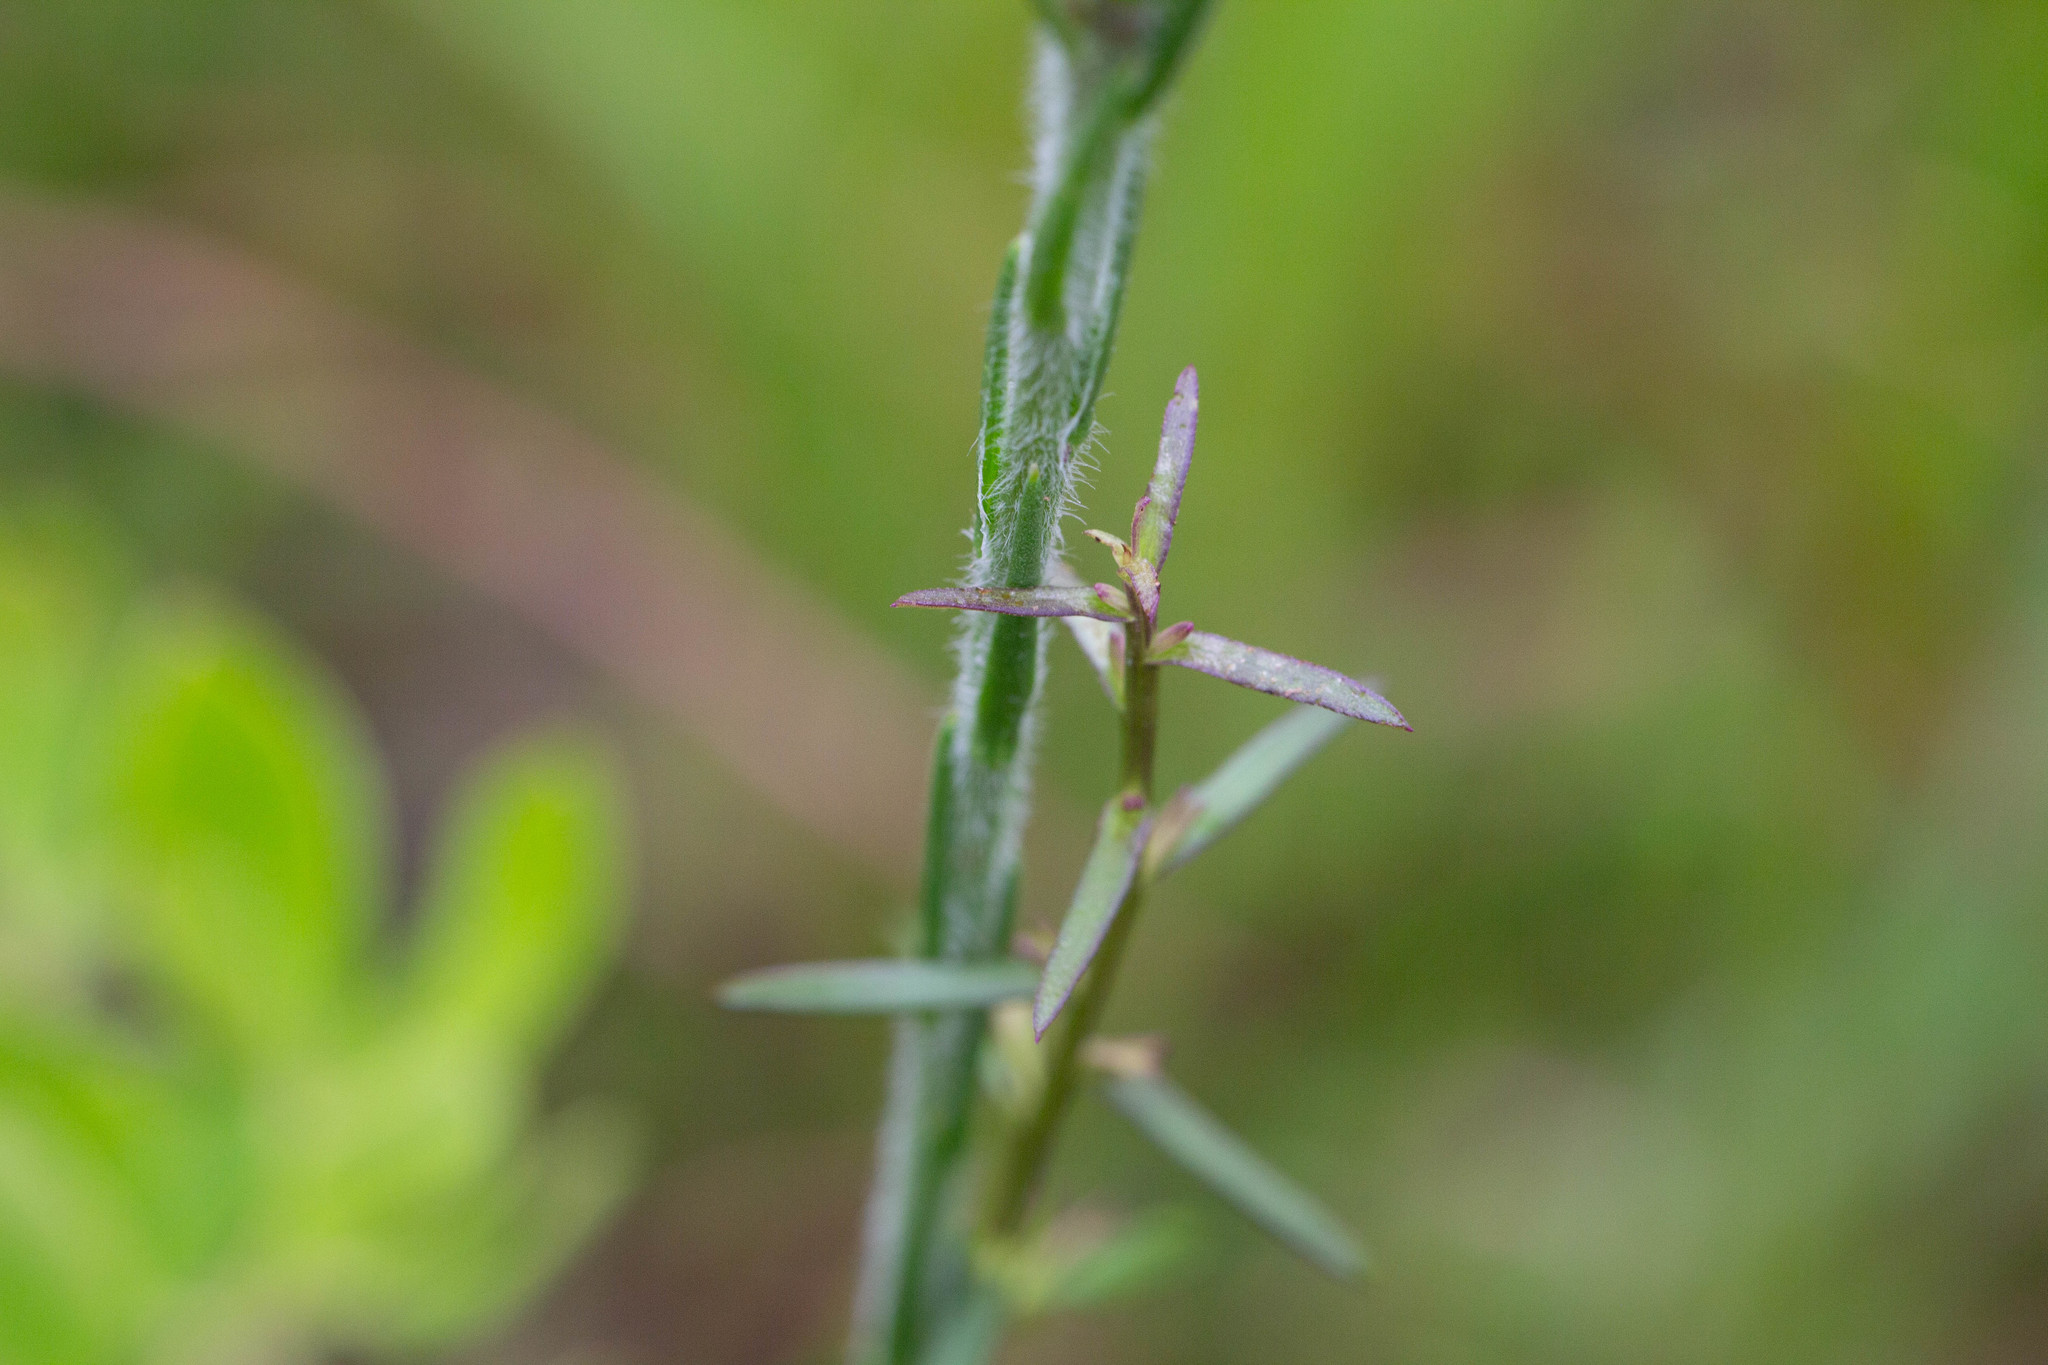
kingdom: Plantae
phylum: Tracheophyta
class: Magnoliopsida
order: Asterales
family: Asteraceae
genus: Carphephorus
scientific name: Carphephorus pseudoliatris
